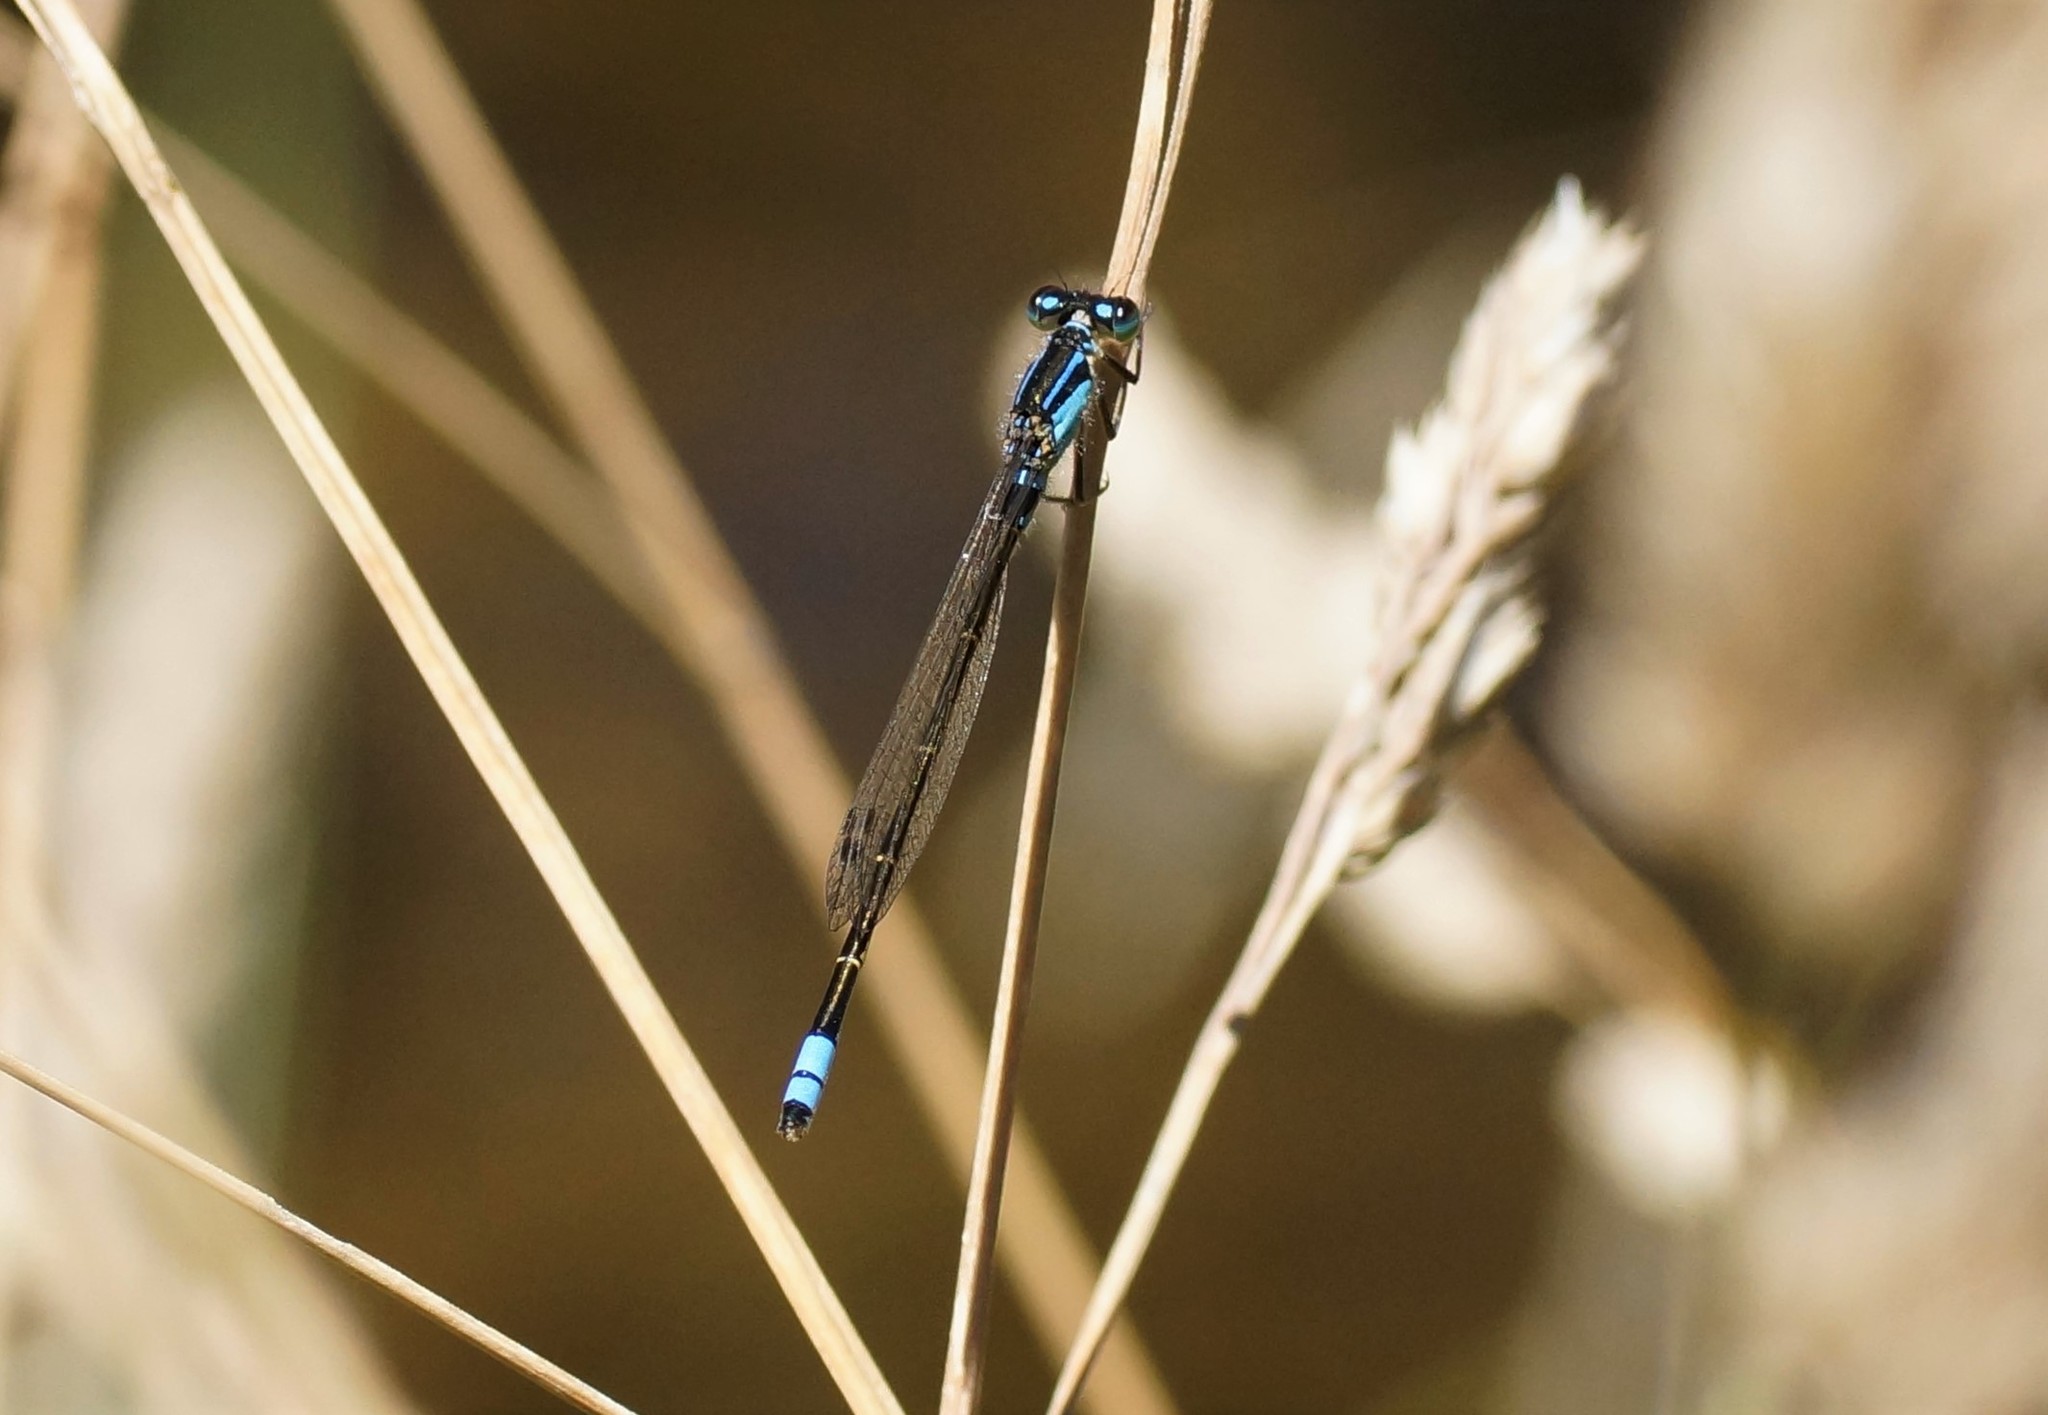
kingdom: Animalia
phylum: Arthropoda
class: Insecta
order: Odonata
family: Coenagrionidae
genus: Ischnura
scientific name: Ischnura heterosticta
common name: Common bluetail
